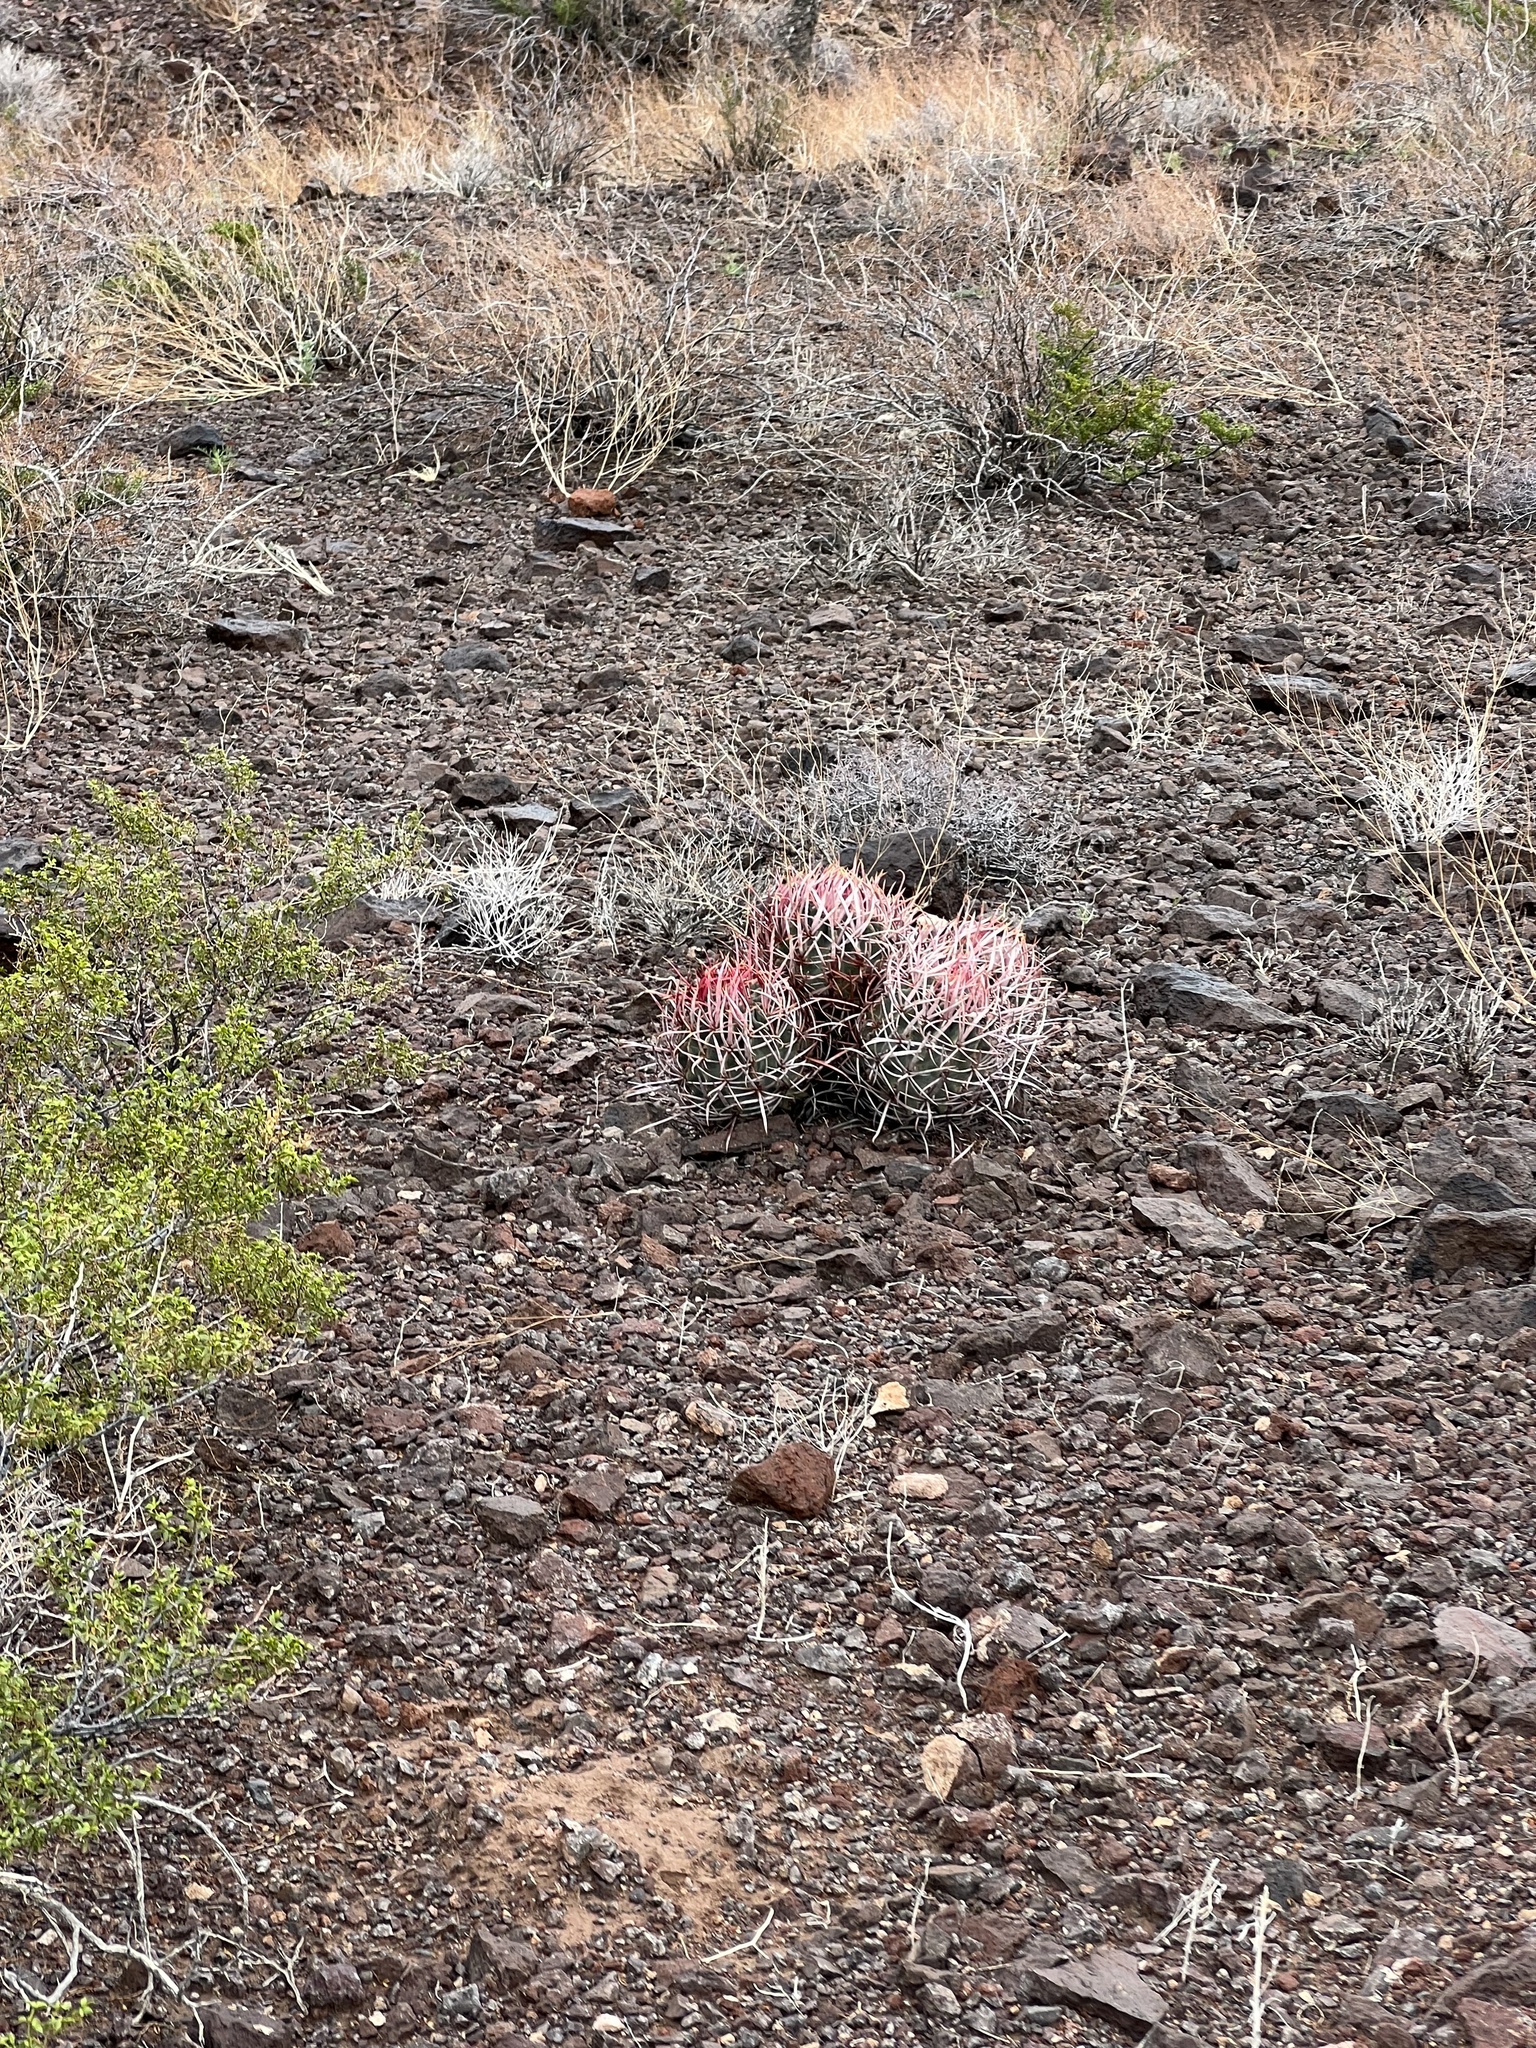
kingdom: Plantae
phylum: Tracheophyta
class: Magnoliopsida
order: Caryophyllales
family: Cactaceae
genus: Echinocactus
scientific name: Echinocactus polycephalus
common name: Cottontop cactus
